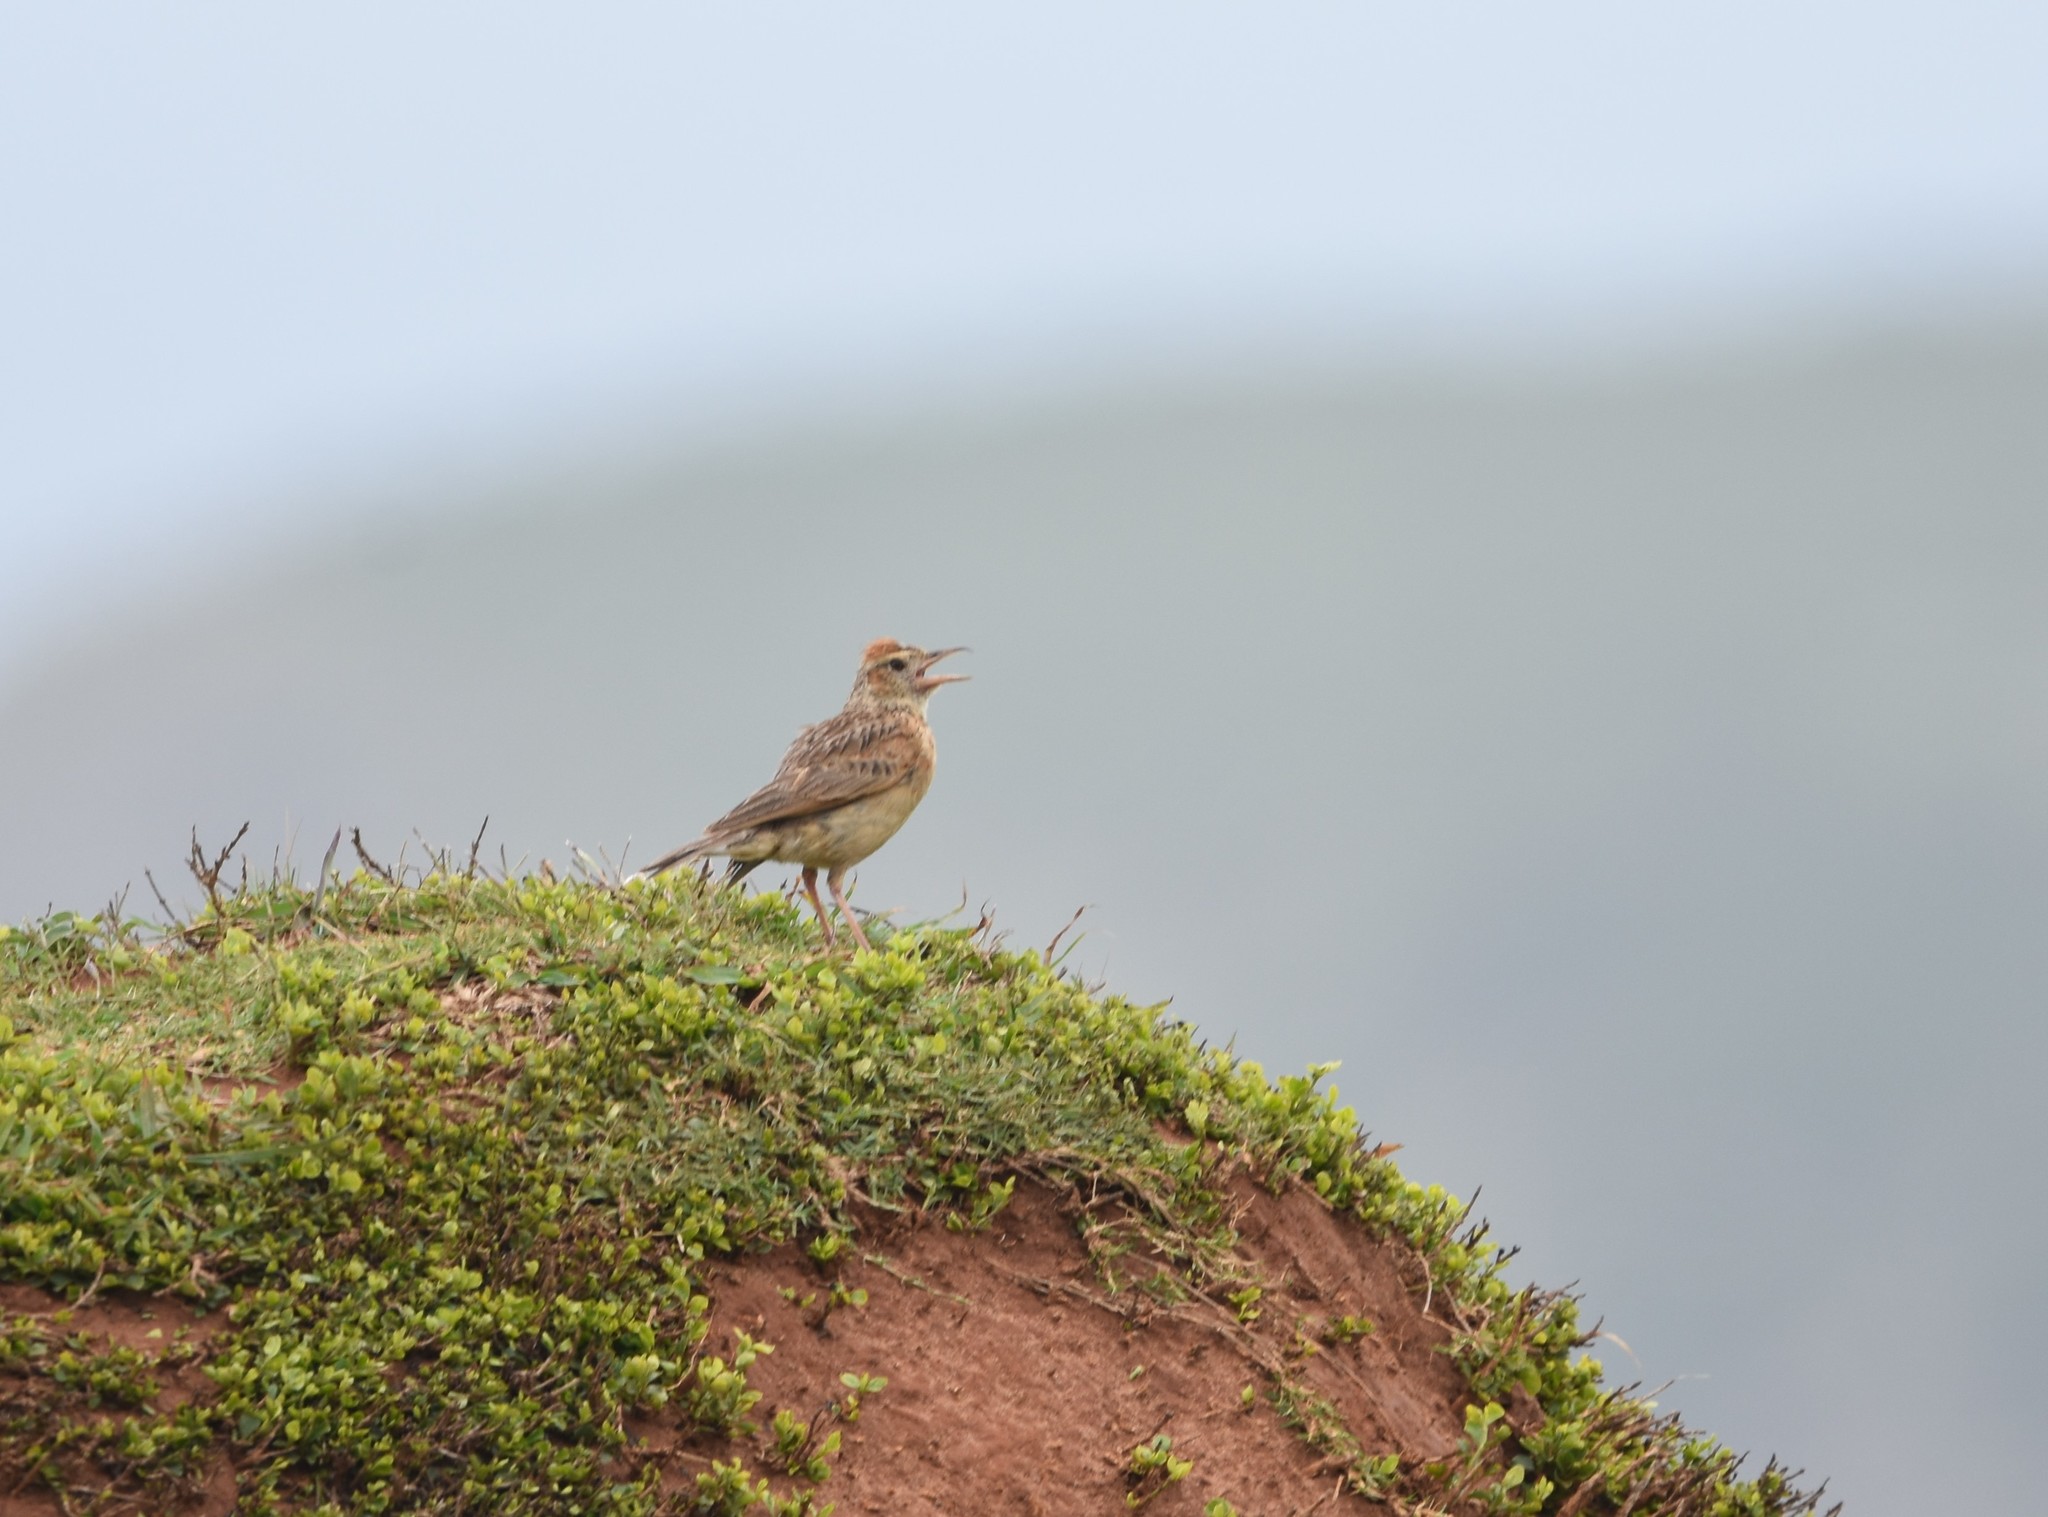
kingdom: Animalia
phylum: Chordata
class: Aves
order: Passeriformes
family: Alaudidae
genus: Mirafra
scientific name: Mirafra africana
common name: Rufous-naped lark
